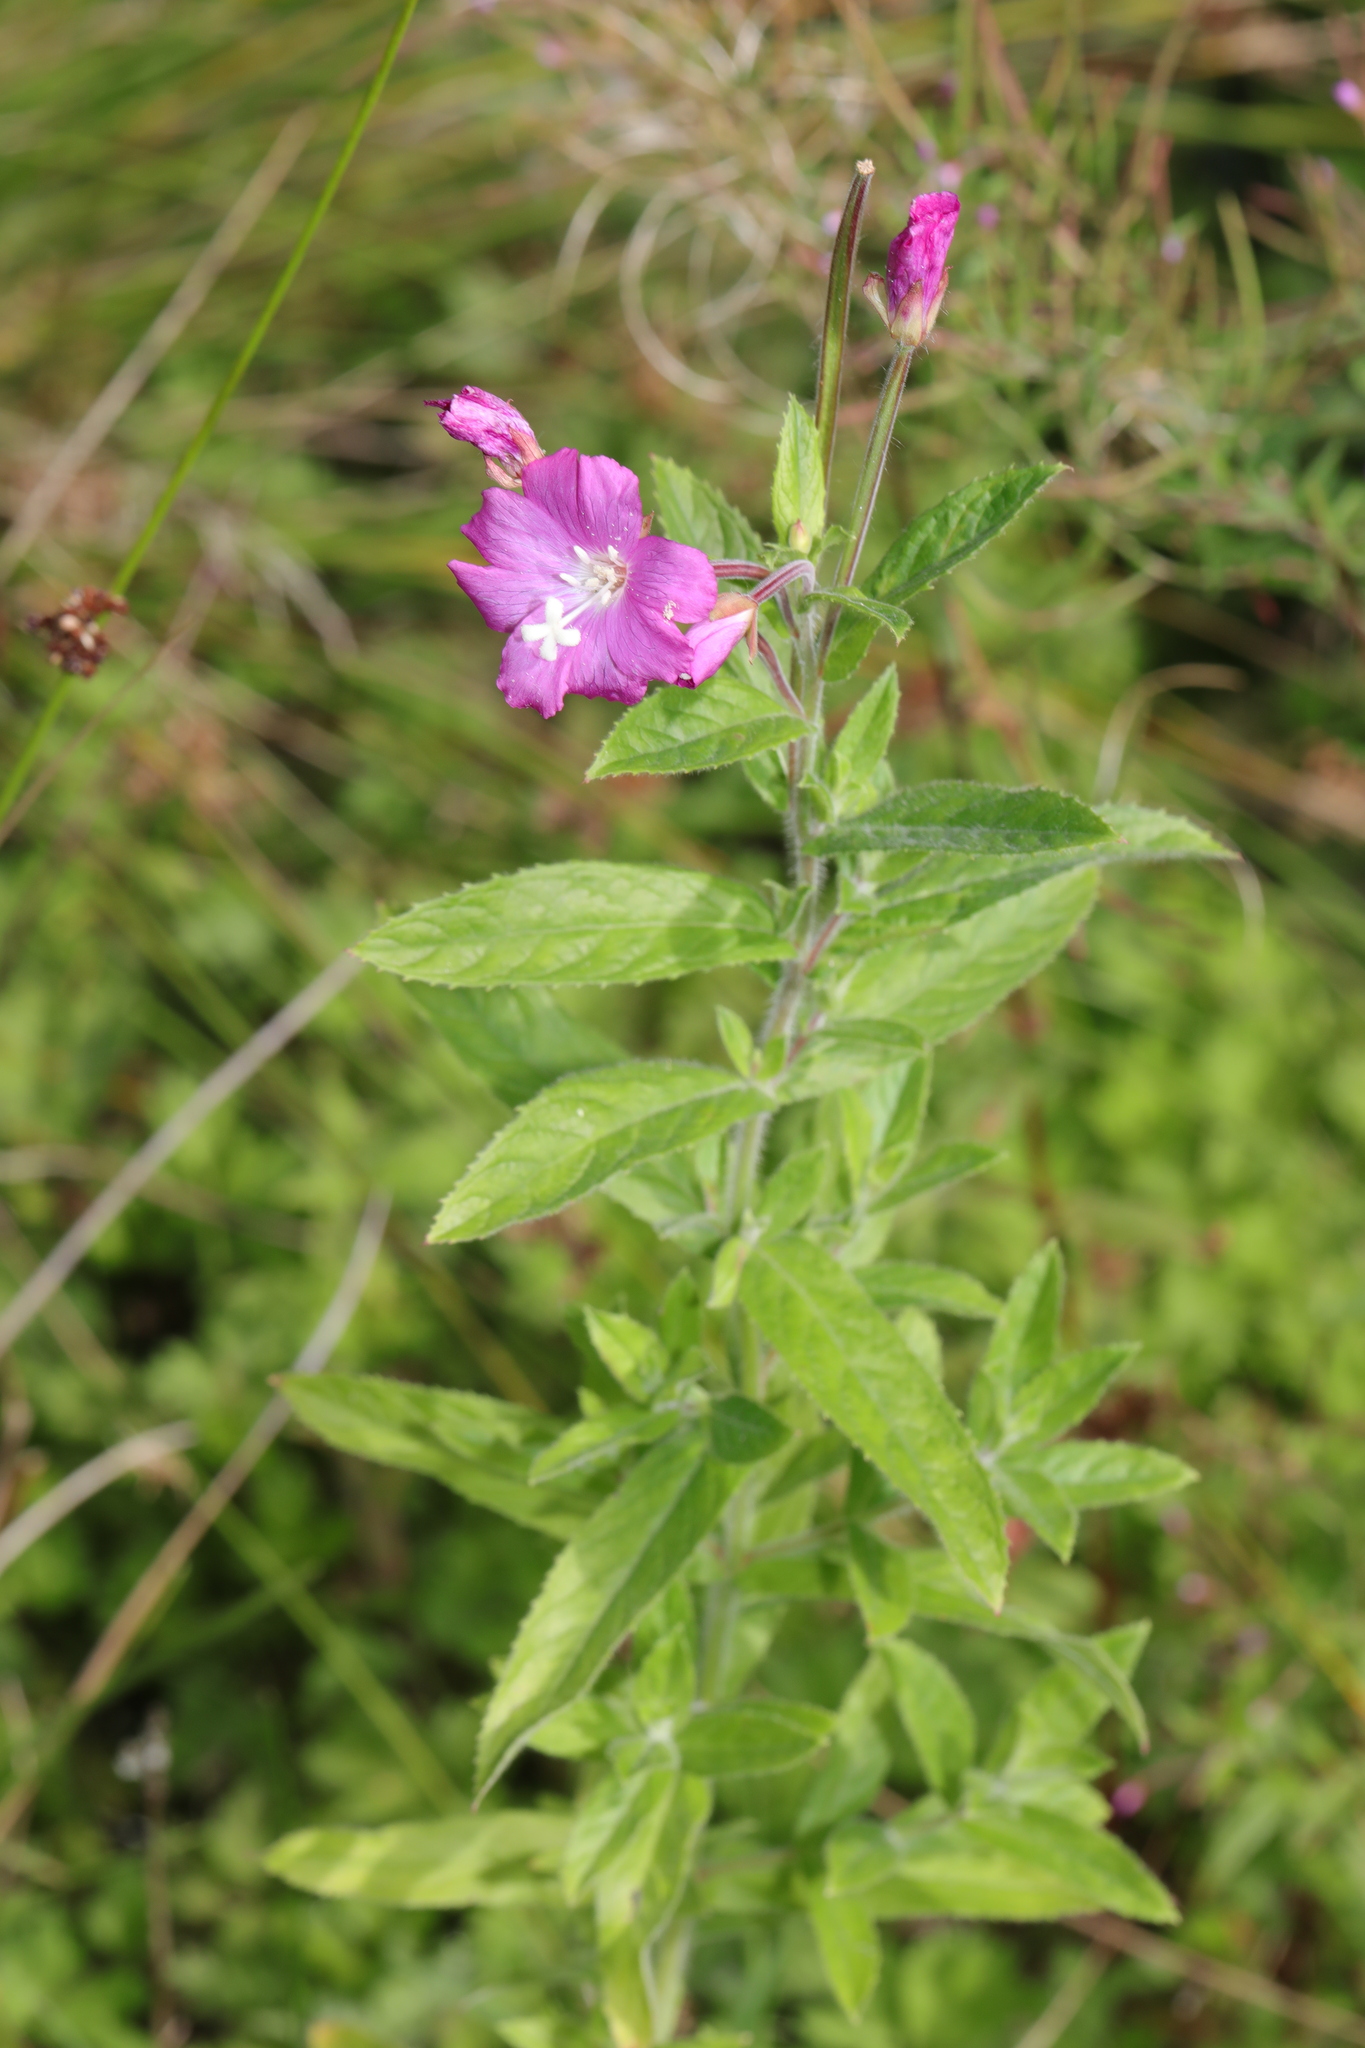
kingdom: Plantae
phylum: Tracheophyta
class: Magnoliopsida
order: Myrtales
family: Onagraceae
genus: Epilobium
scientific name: Epilobium hirsutum
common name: Great willowherb
